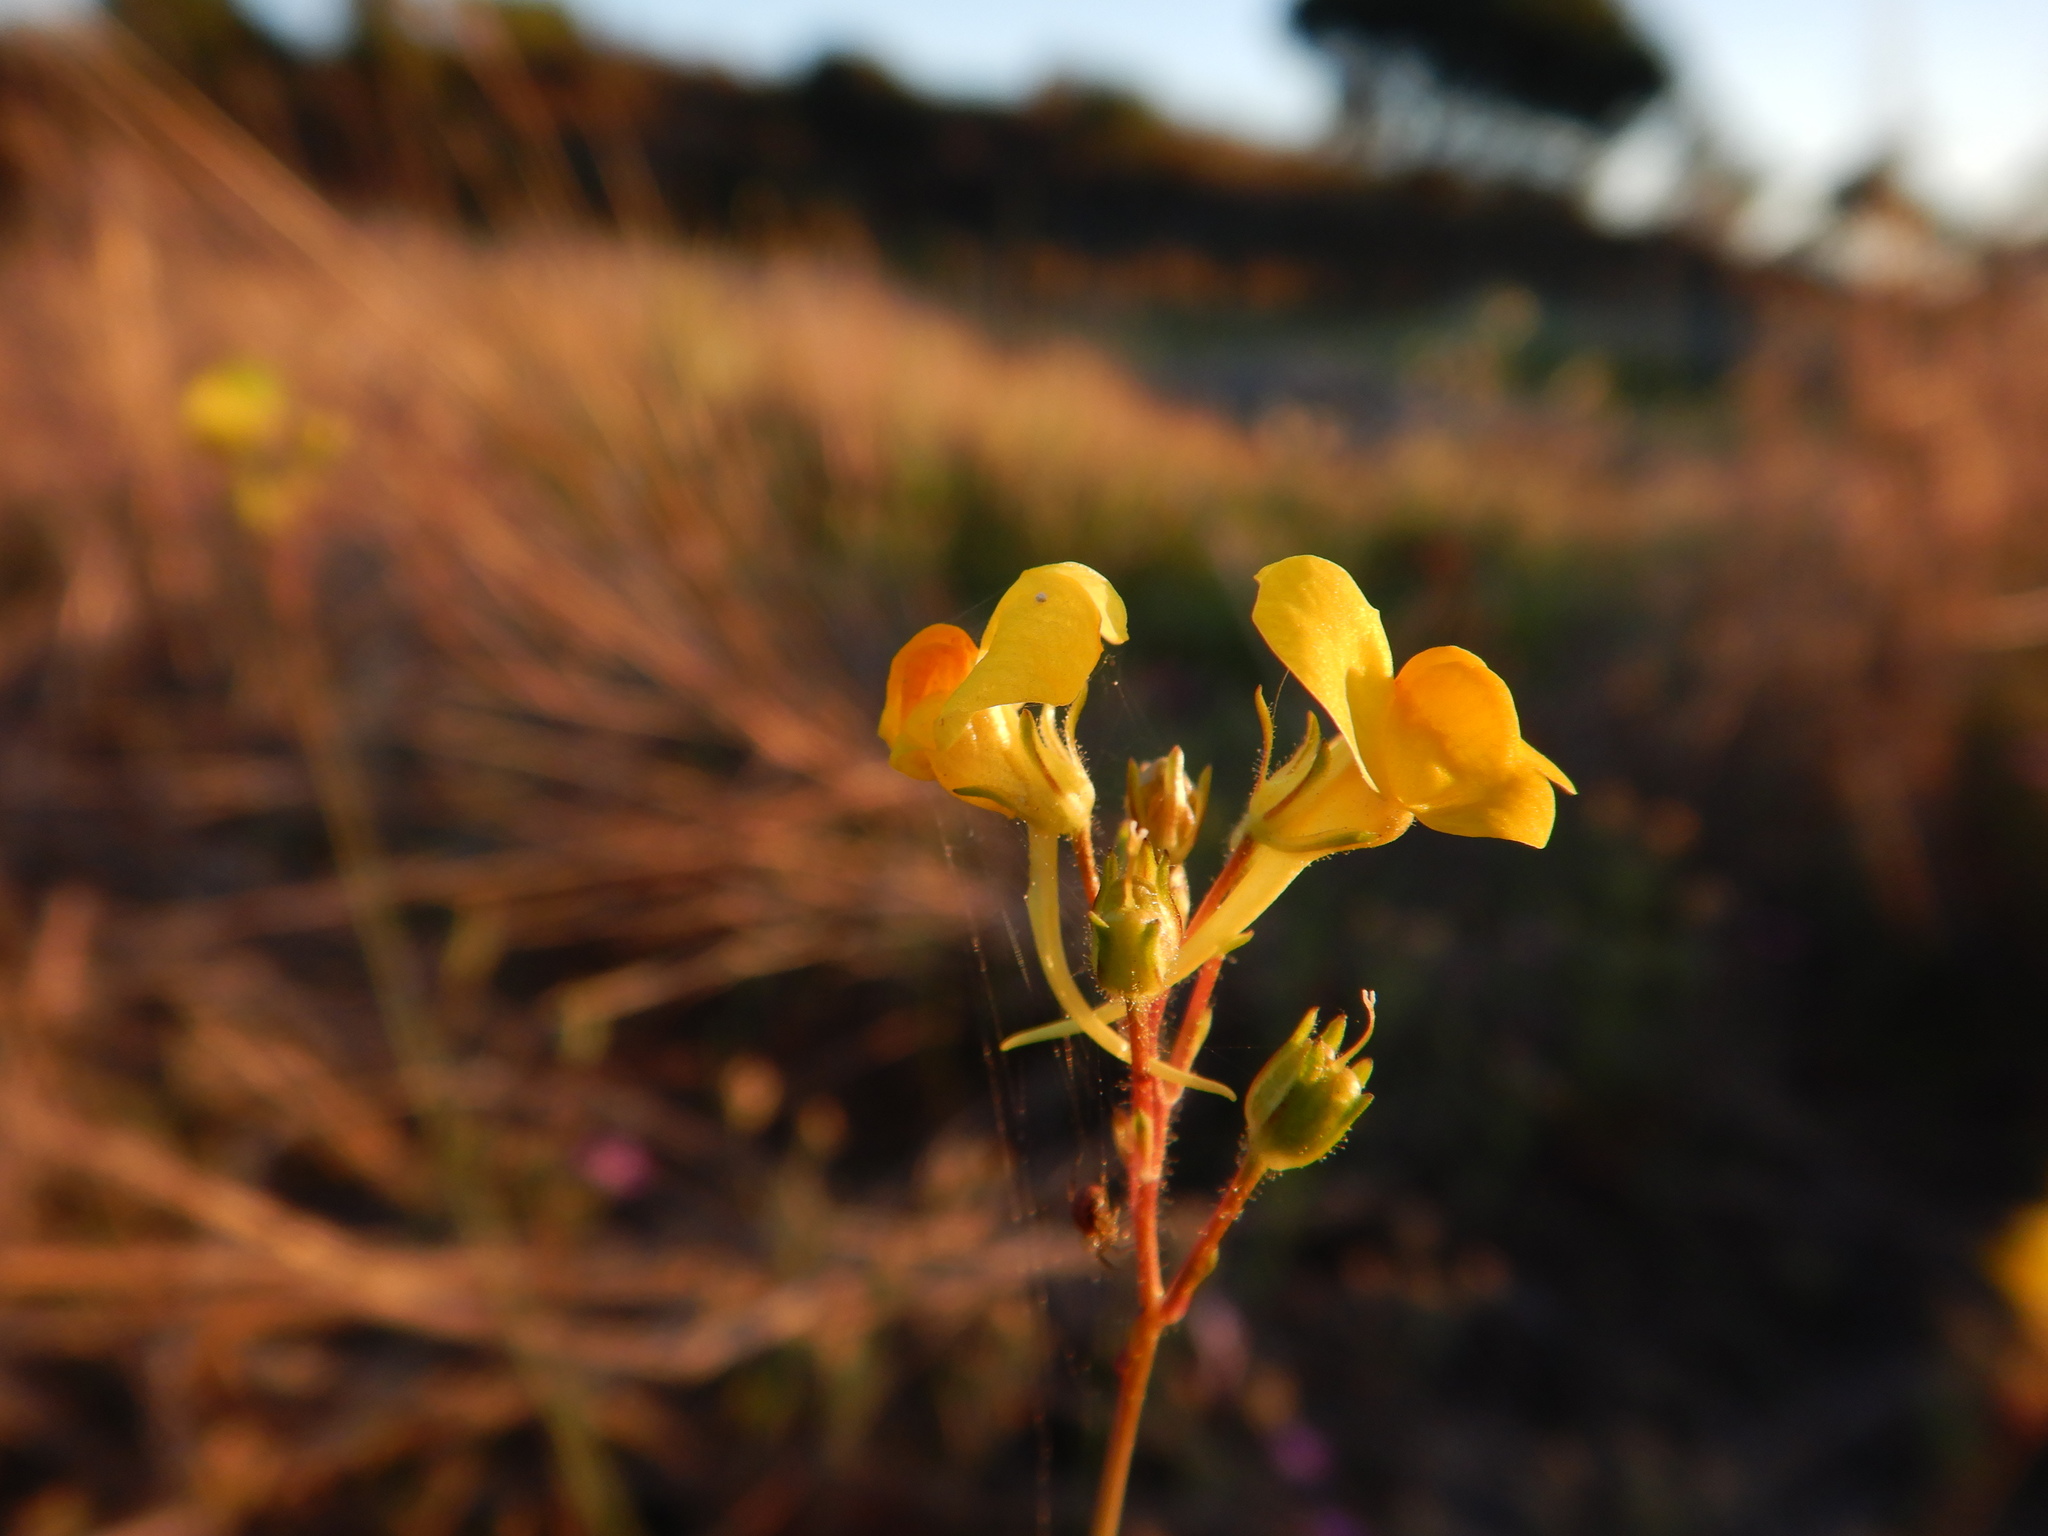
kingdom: Plantae
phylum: Tracheophyta
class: Magnoliopsida
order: Lamiales
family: Plantaginaceae
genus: Linaria
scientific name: Linaria spartea
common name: Ballast toadflax
